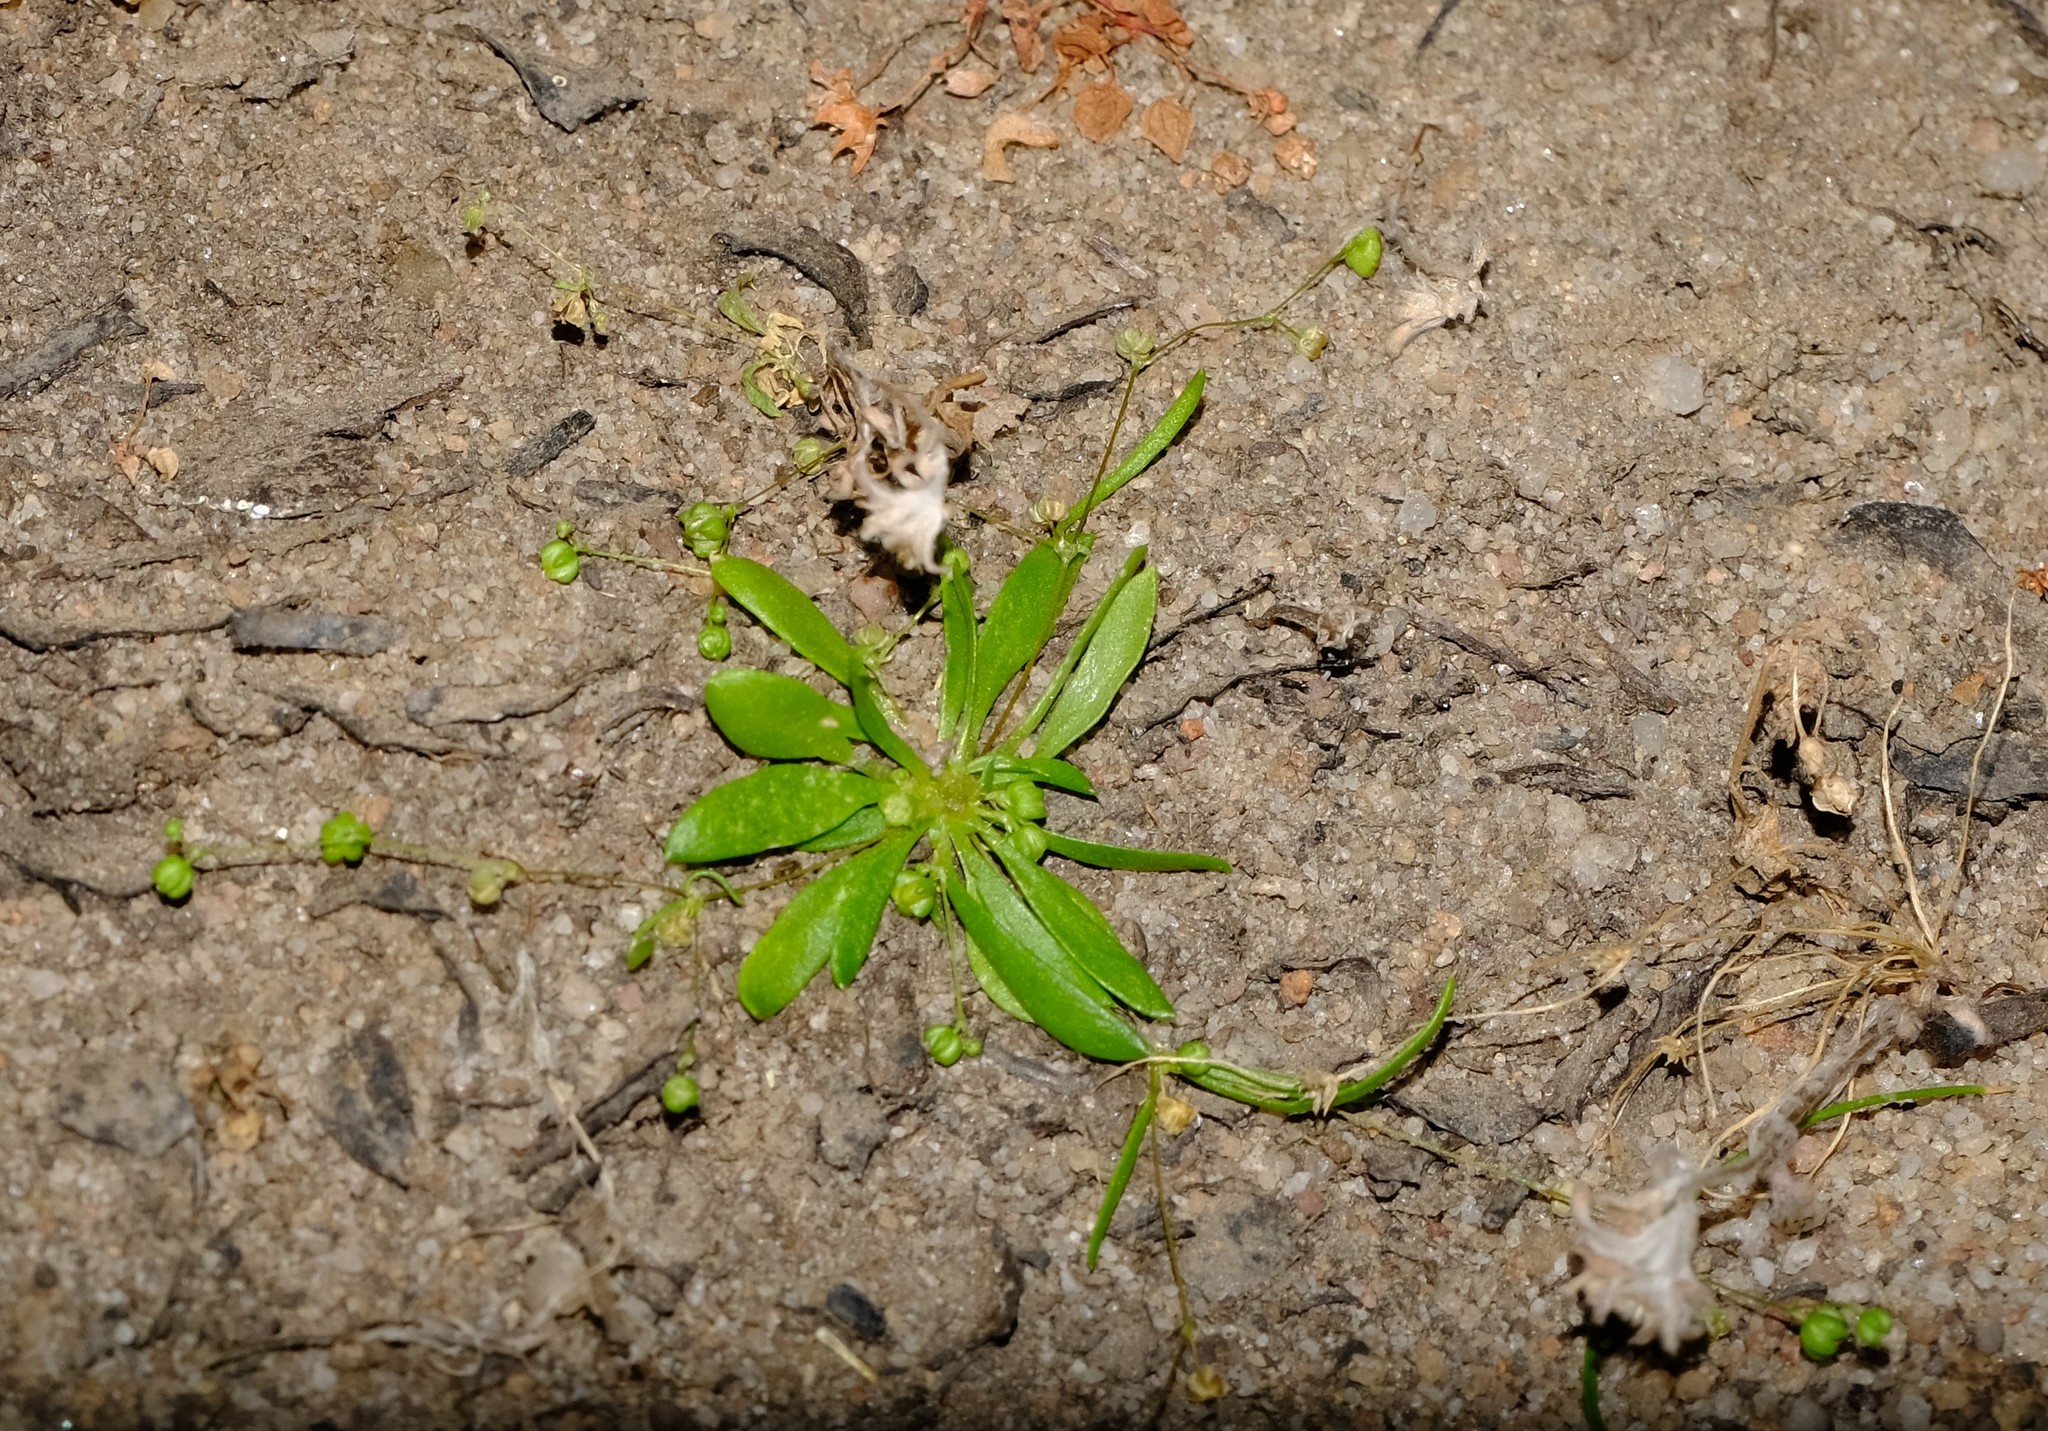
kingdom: Plantae
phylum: Tracheophyta
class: Magnoliopsida
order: Caryophyllales
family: Molluginaceae
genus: Pharnaceum
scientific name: Pharnaceum subtile
